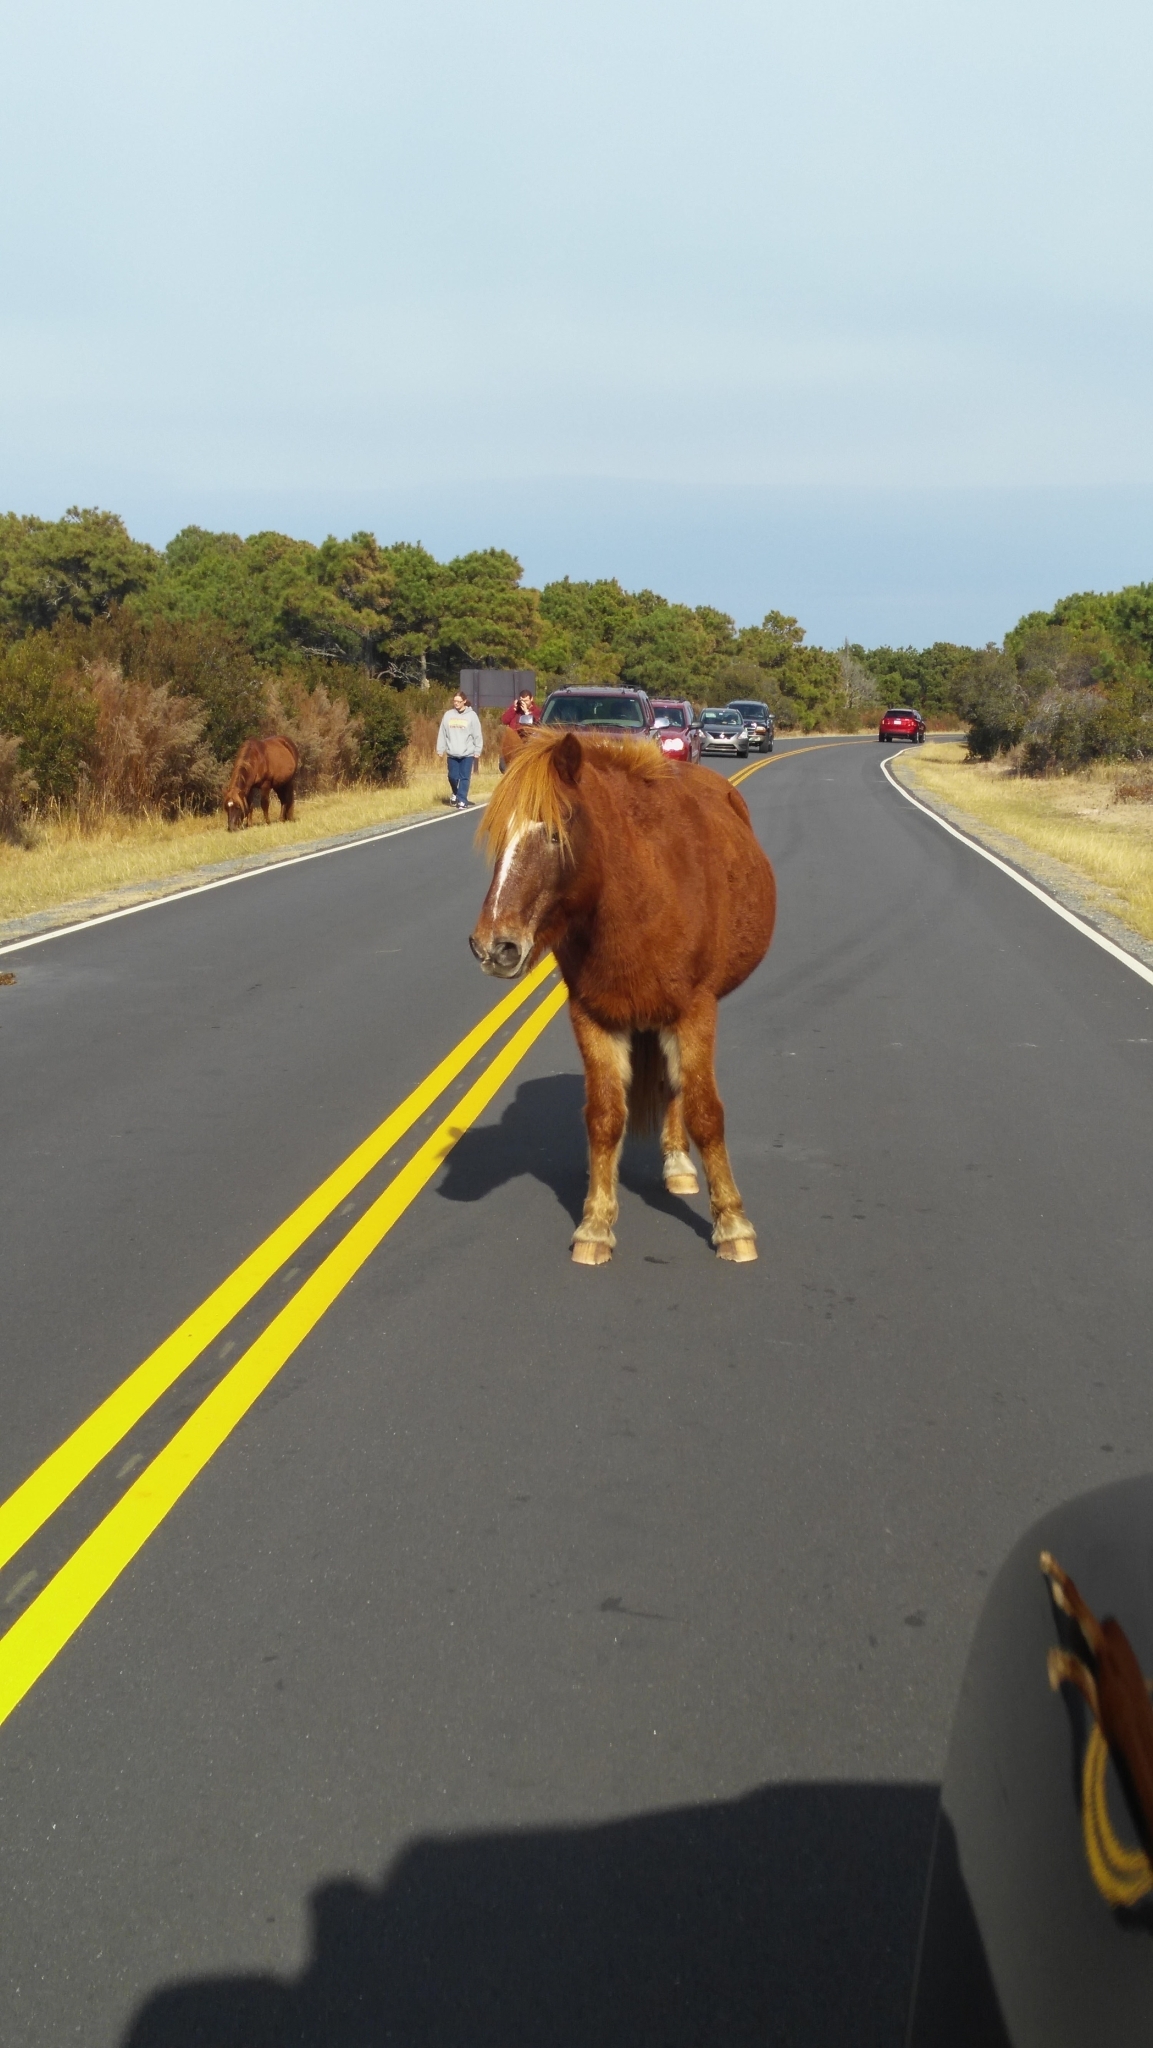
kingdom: Animalia
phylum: Chordata
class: Mammalia
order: Perissodactyla
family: Equidae
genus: Equus
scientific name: Equus caballus
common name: Horse
